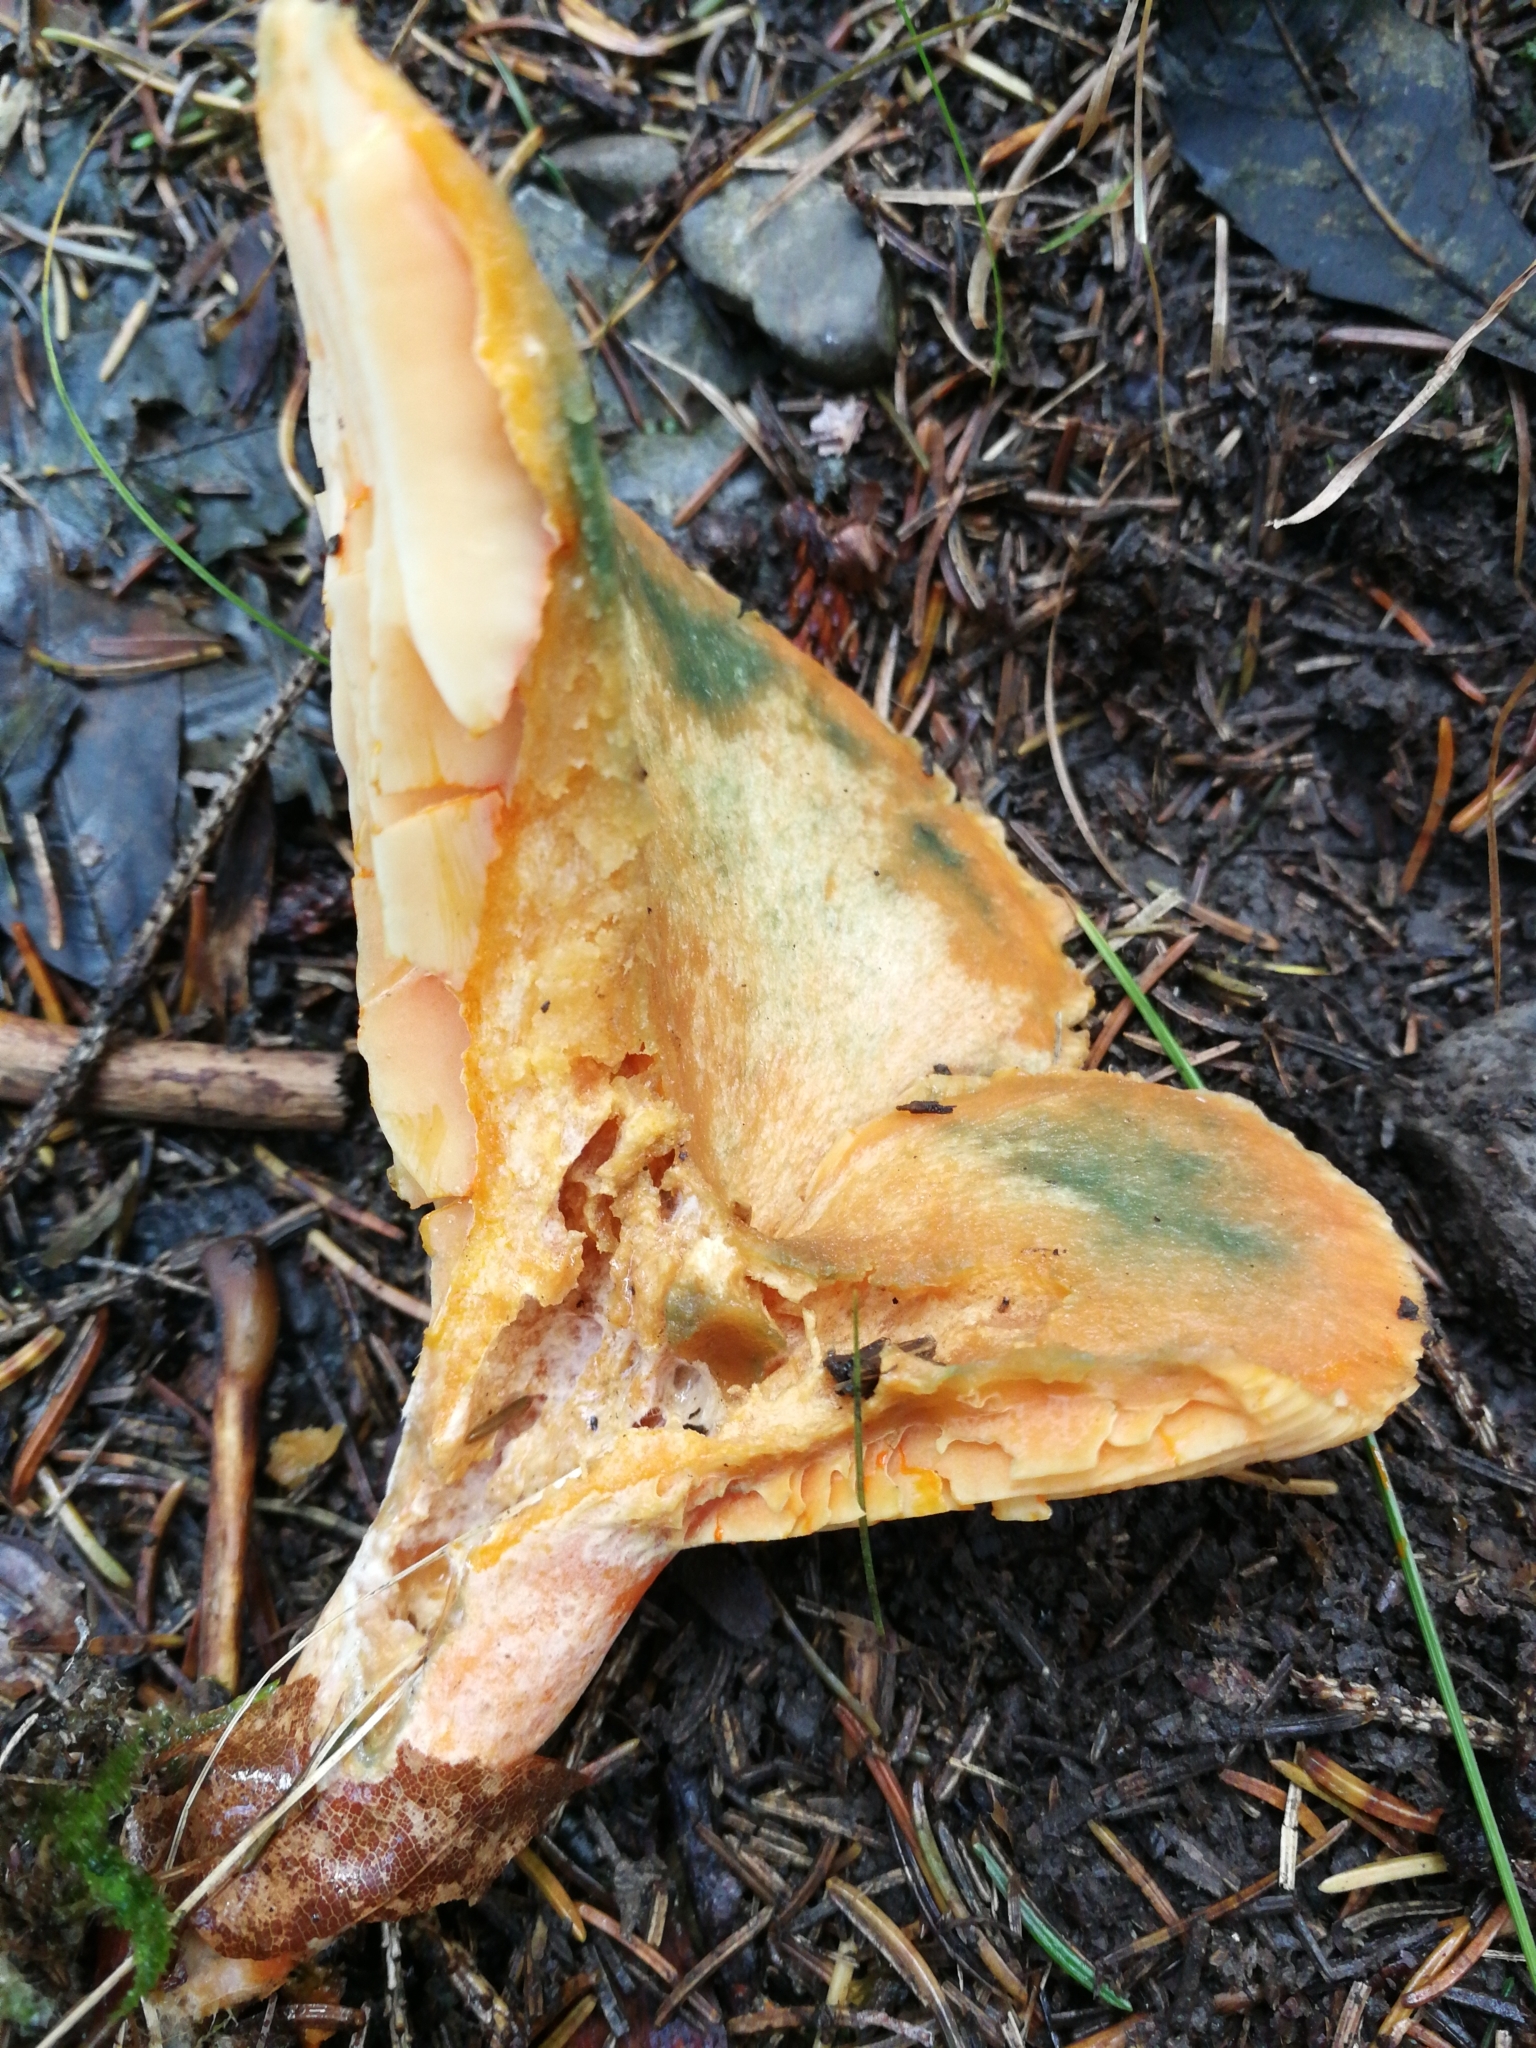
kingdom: Fungi
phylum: Basidiomycota
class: Agaricomycetes
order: Russulales
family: Russulaceae
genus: Lactarius
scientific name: Lactarius deterrimus
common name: False saffron milkcap
